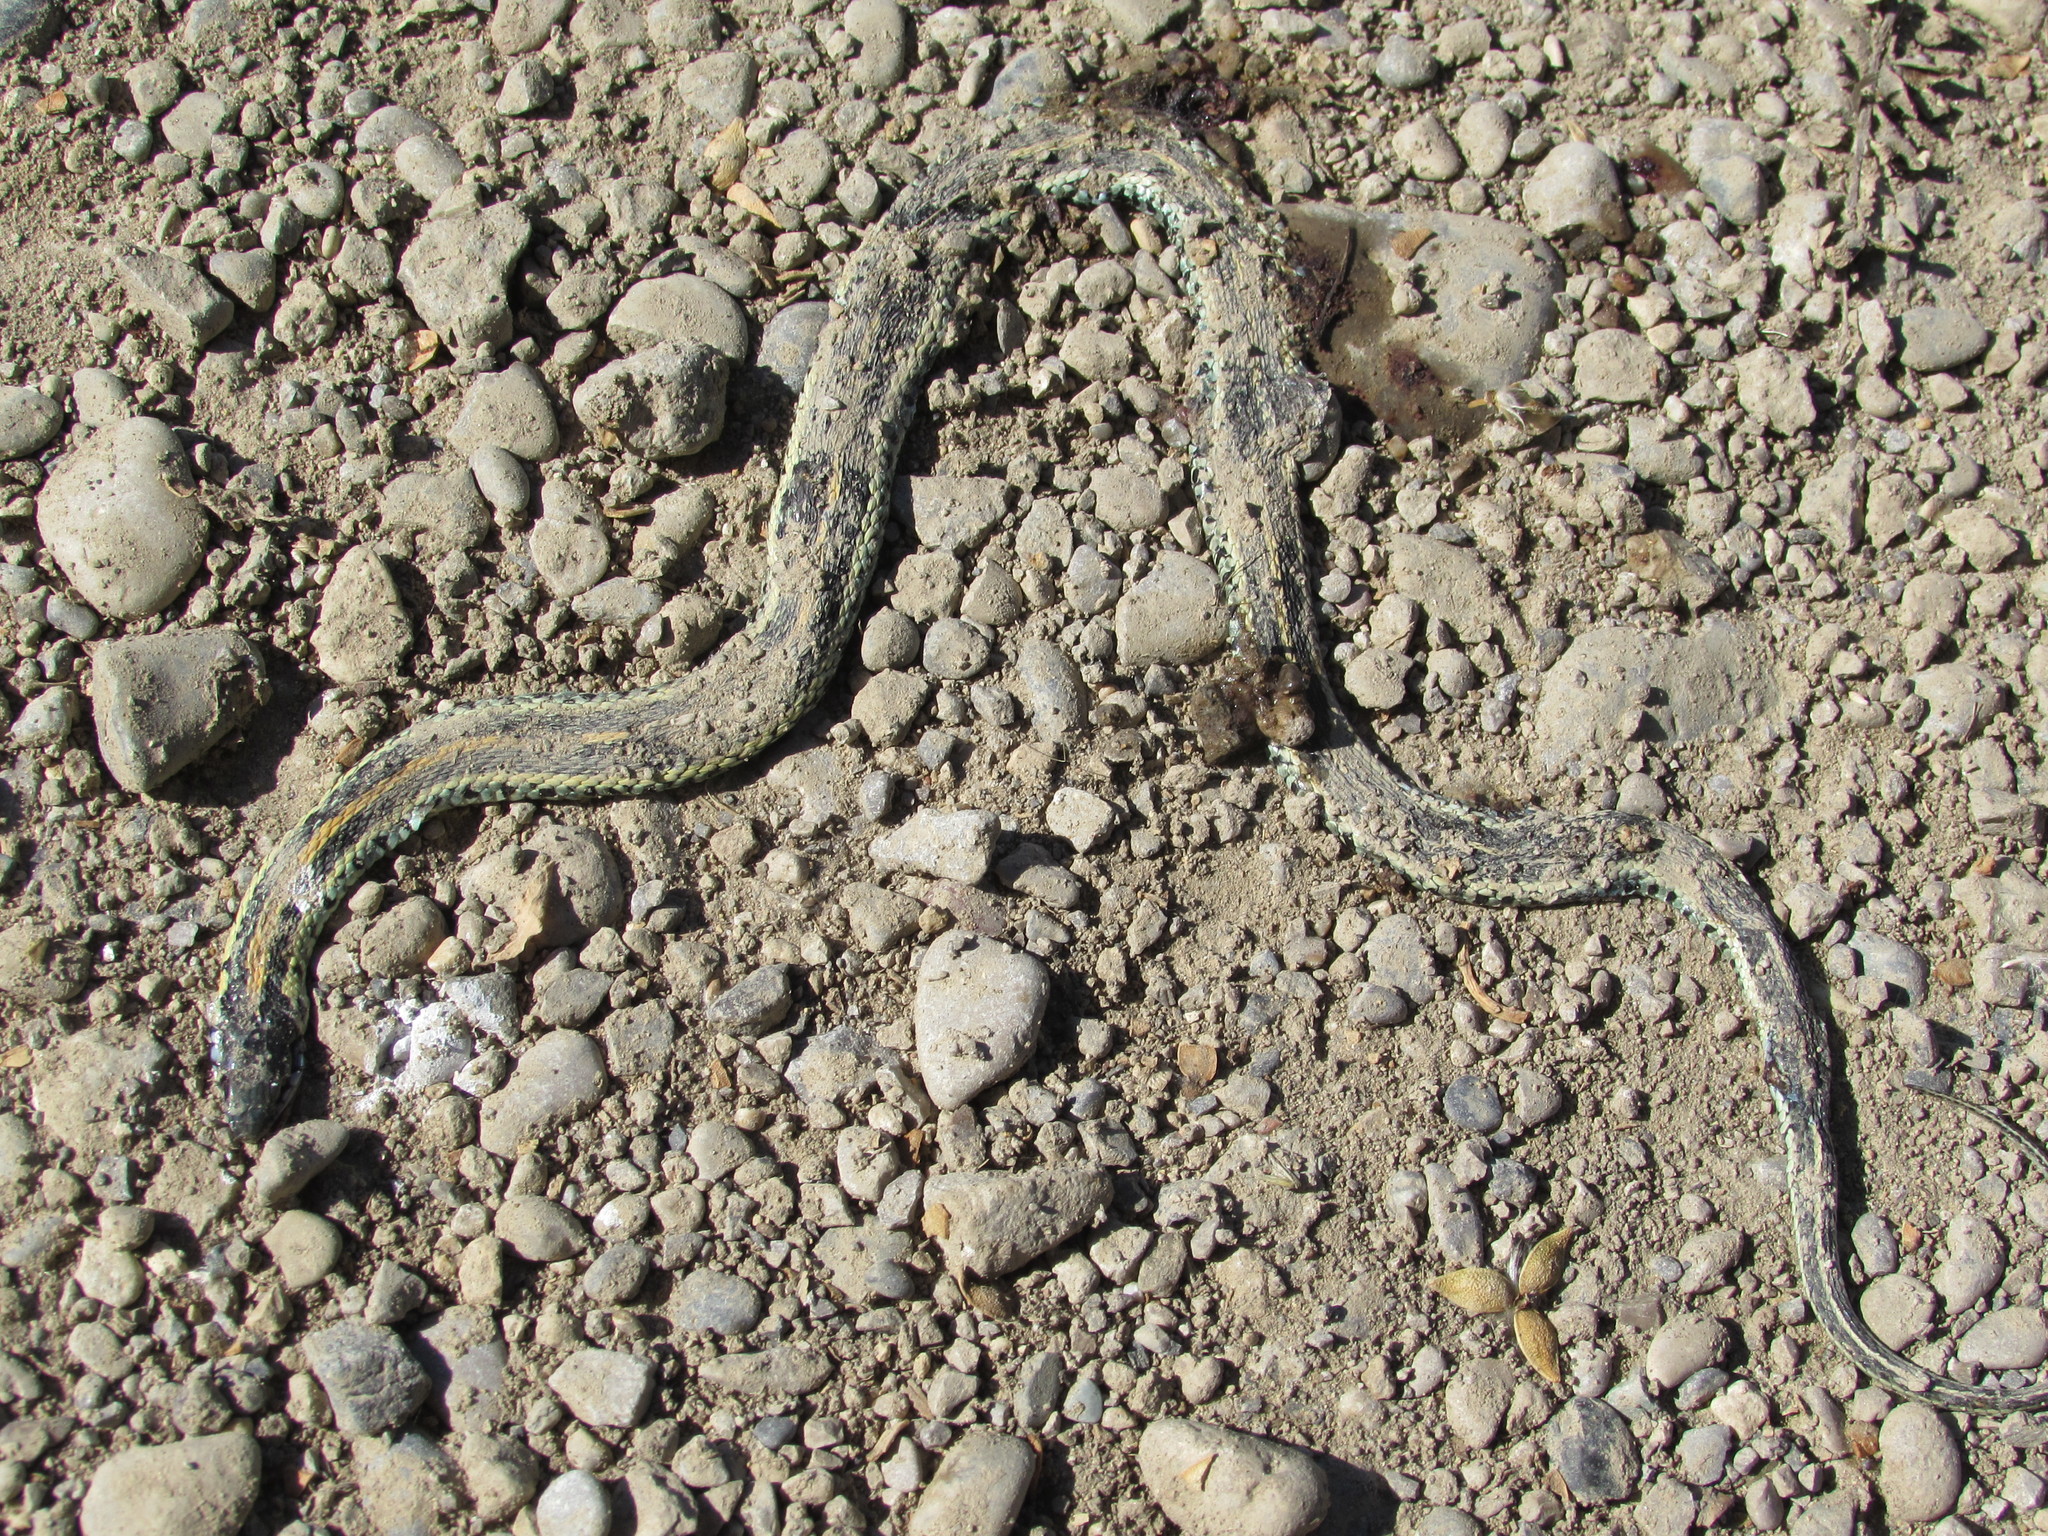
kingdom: Animalia
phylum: Chordata
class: Squamata
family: Colubridae
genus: Thamnophis
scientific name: Thamnophis radix
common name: Plains garter snake
